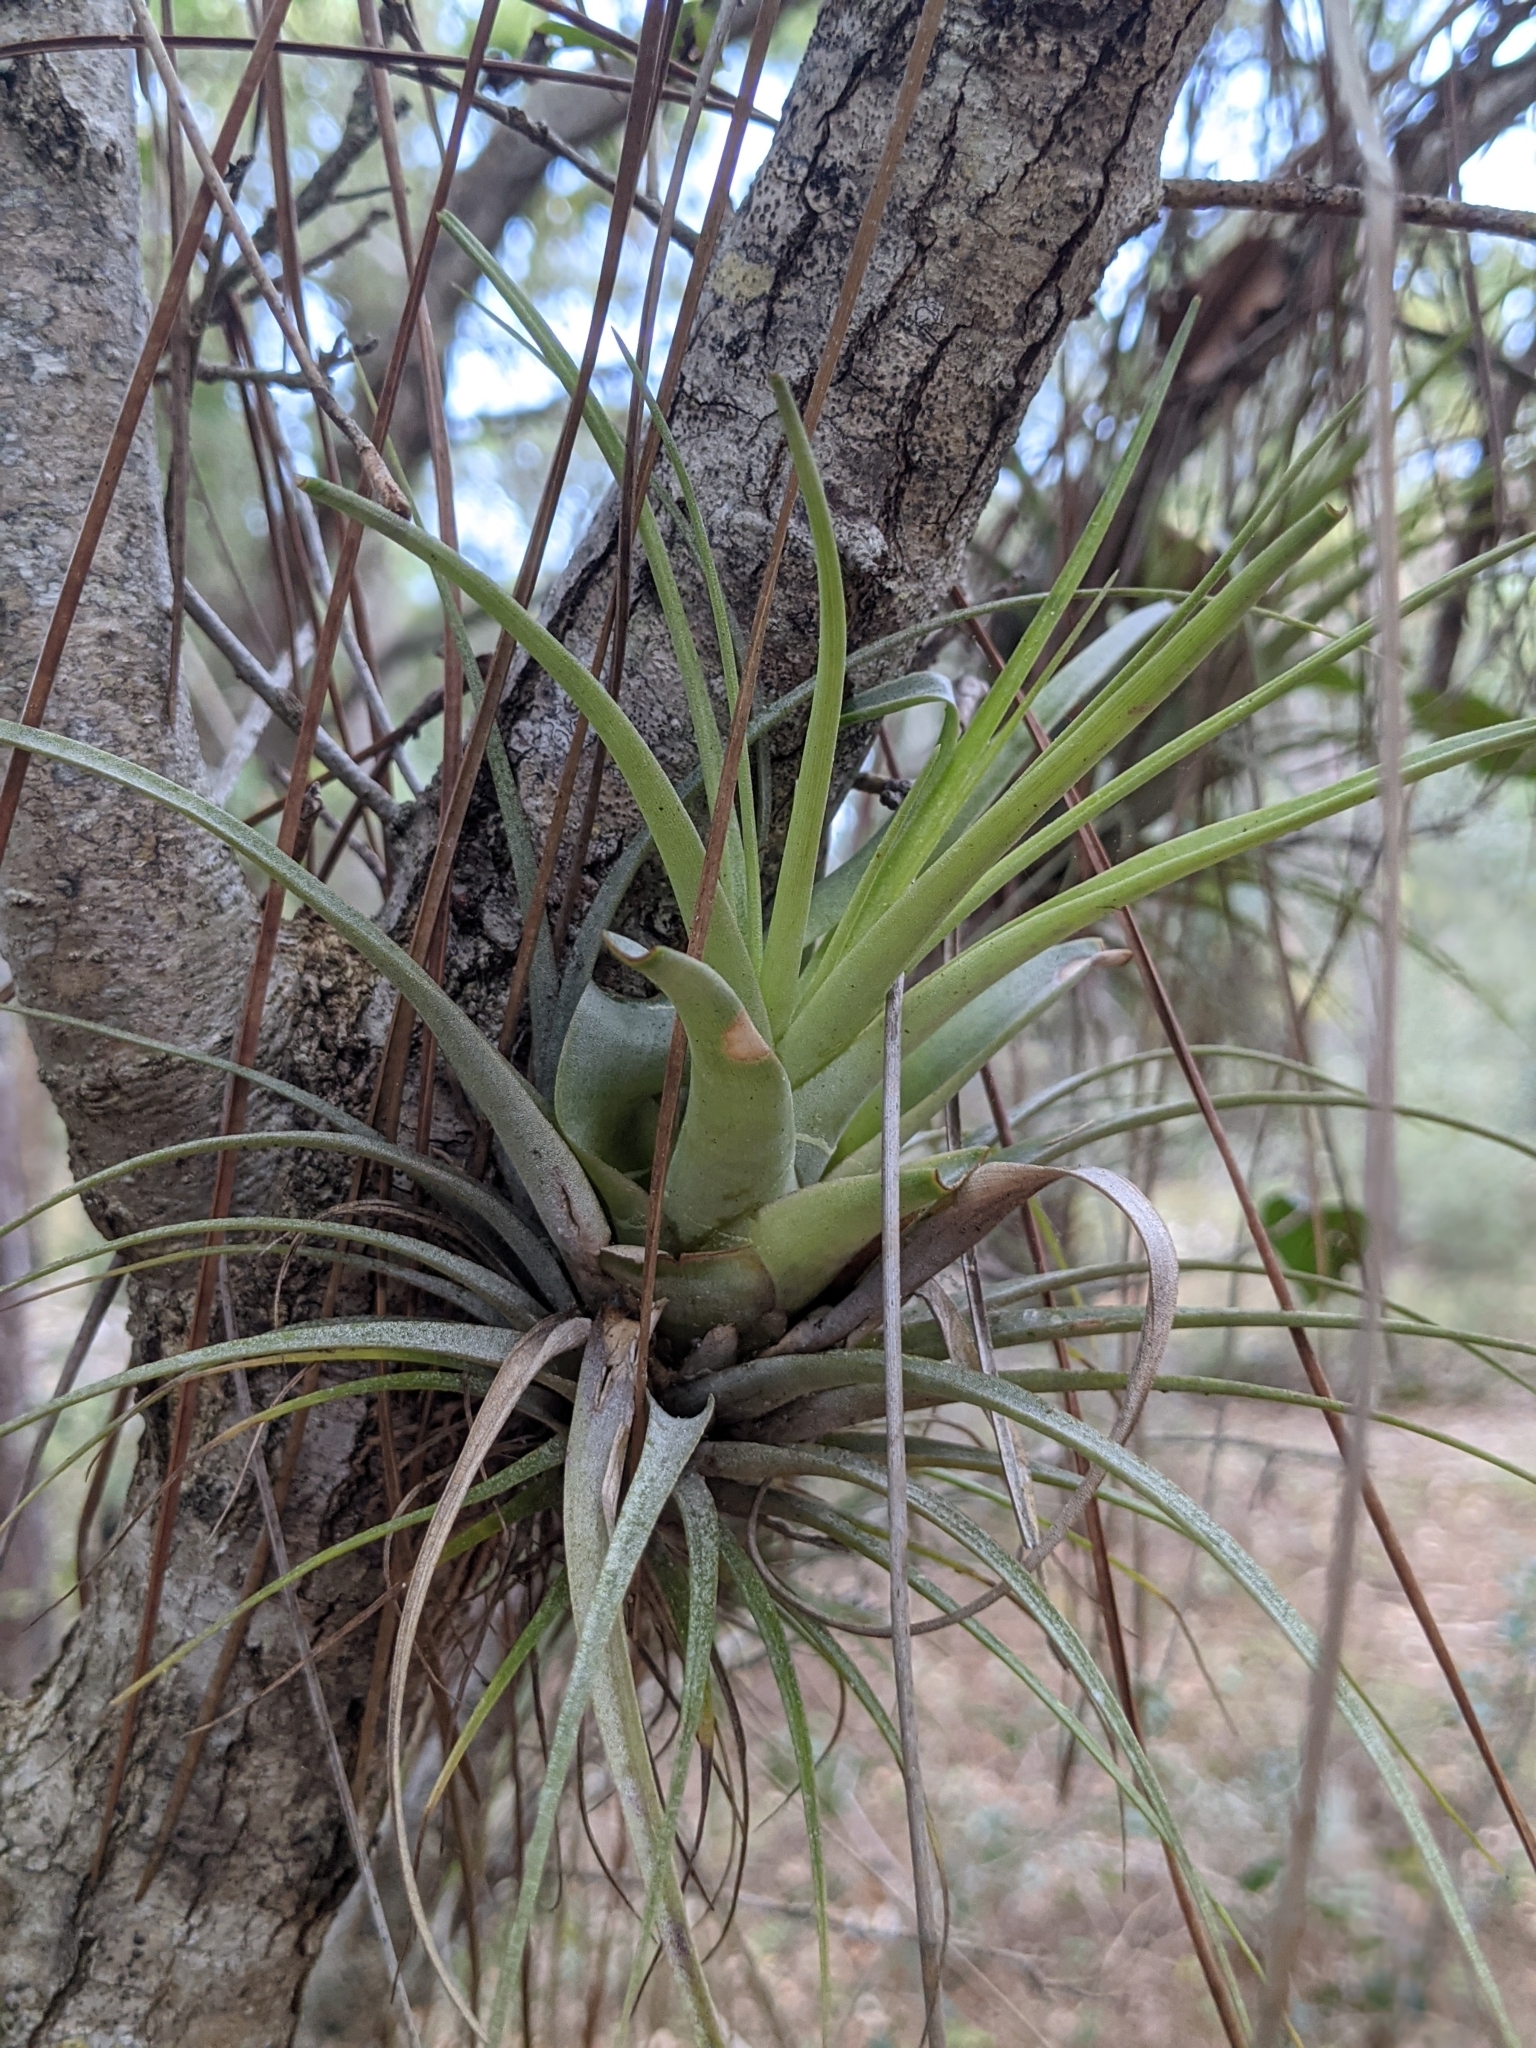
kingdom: Plantae
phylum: Tracheophyta
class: Liliopsida
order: Poales
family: Bromeliaceae
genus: Tillandsia
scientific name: Tillandsia utriculata
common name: Wild pine
